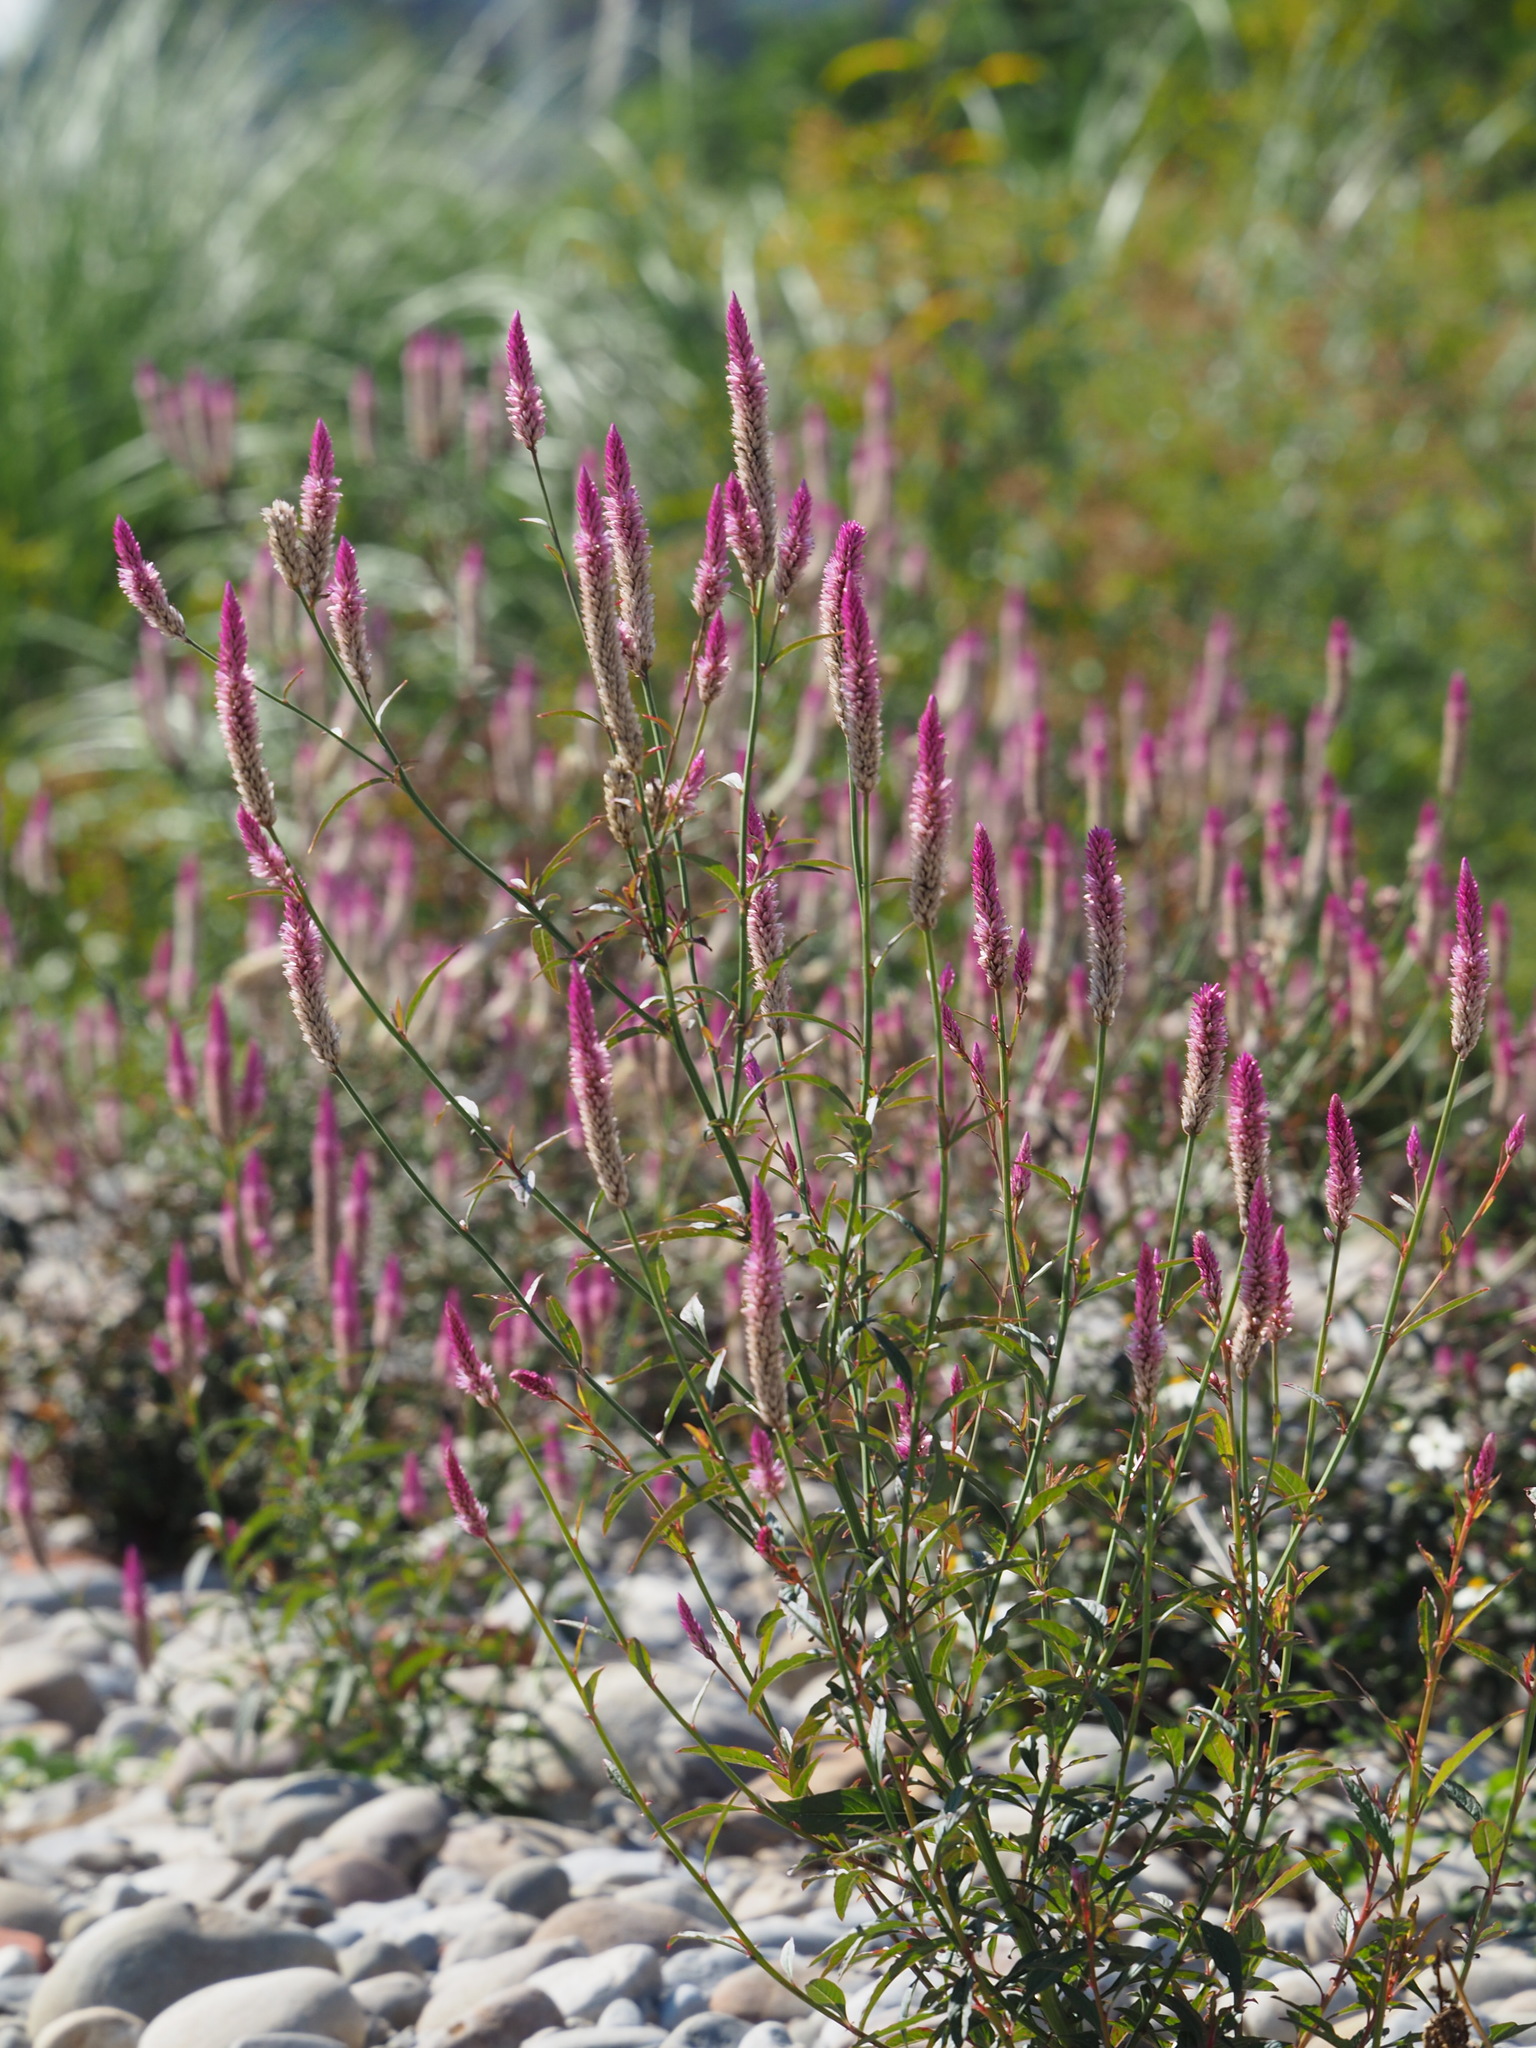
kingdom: Plantae
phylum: Tracheophyta
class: Magnoliopsida
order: Caryophyllales
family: Amaranthaceae
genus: Celosia
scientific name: Celosia argentea
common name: Feather cockscomb
